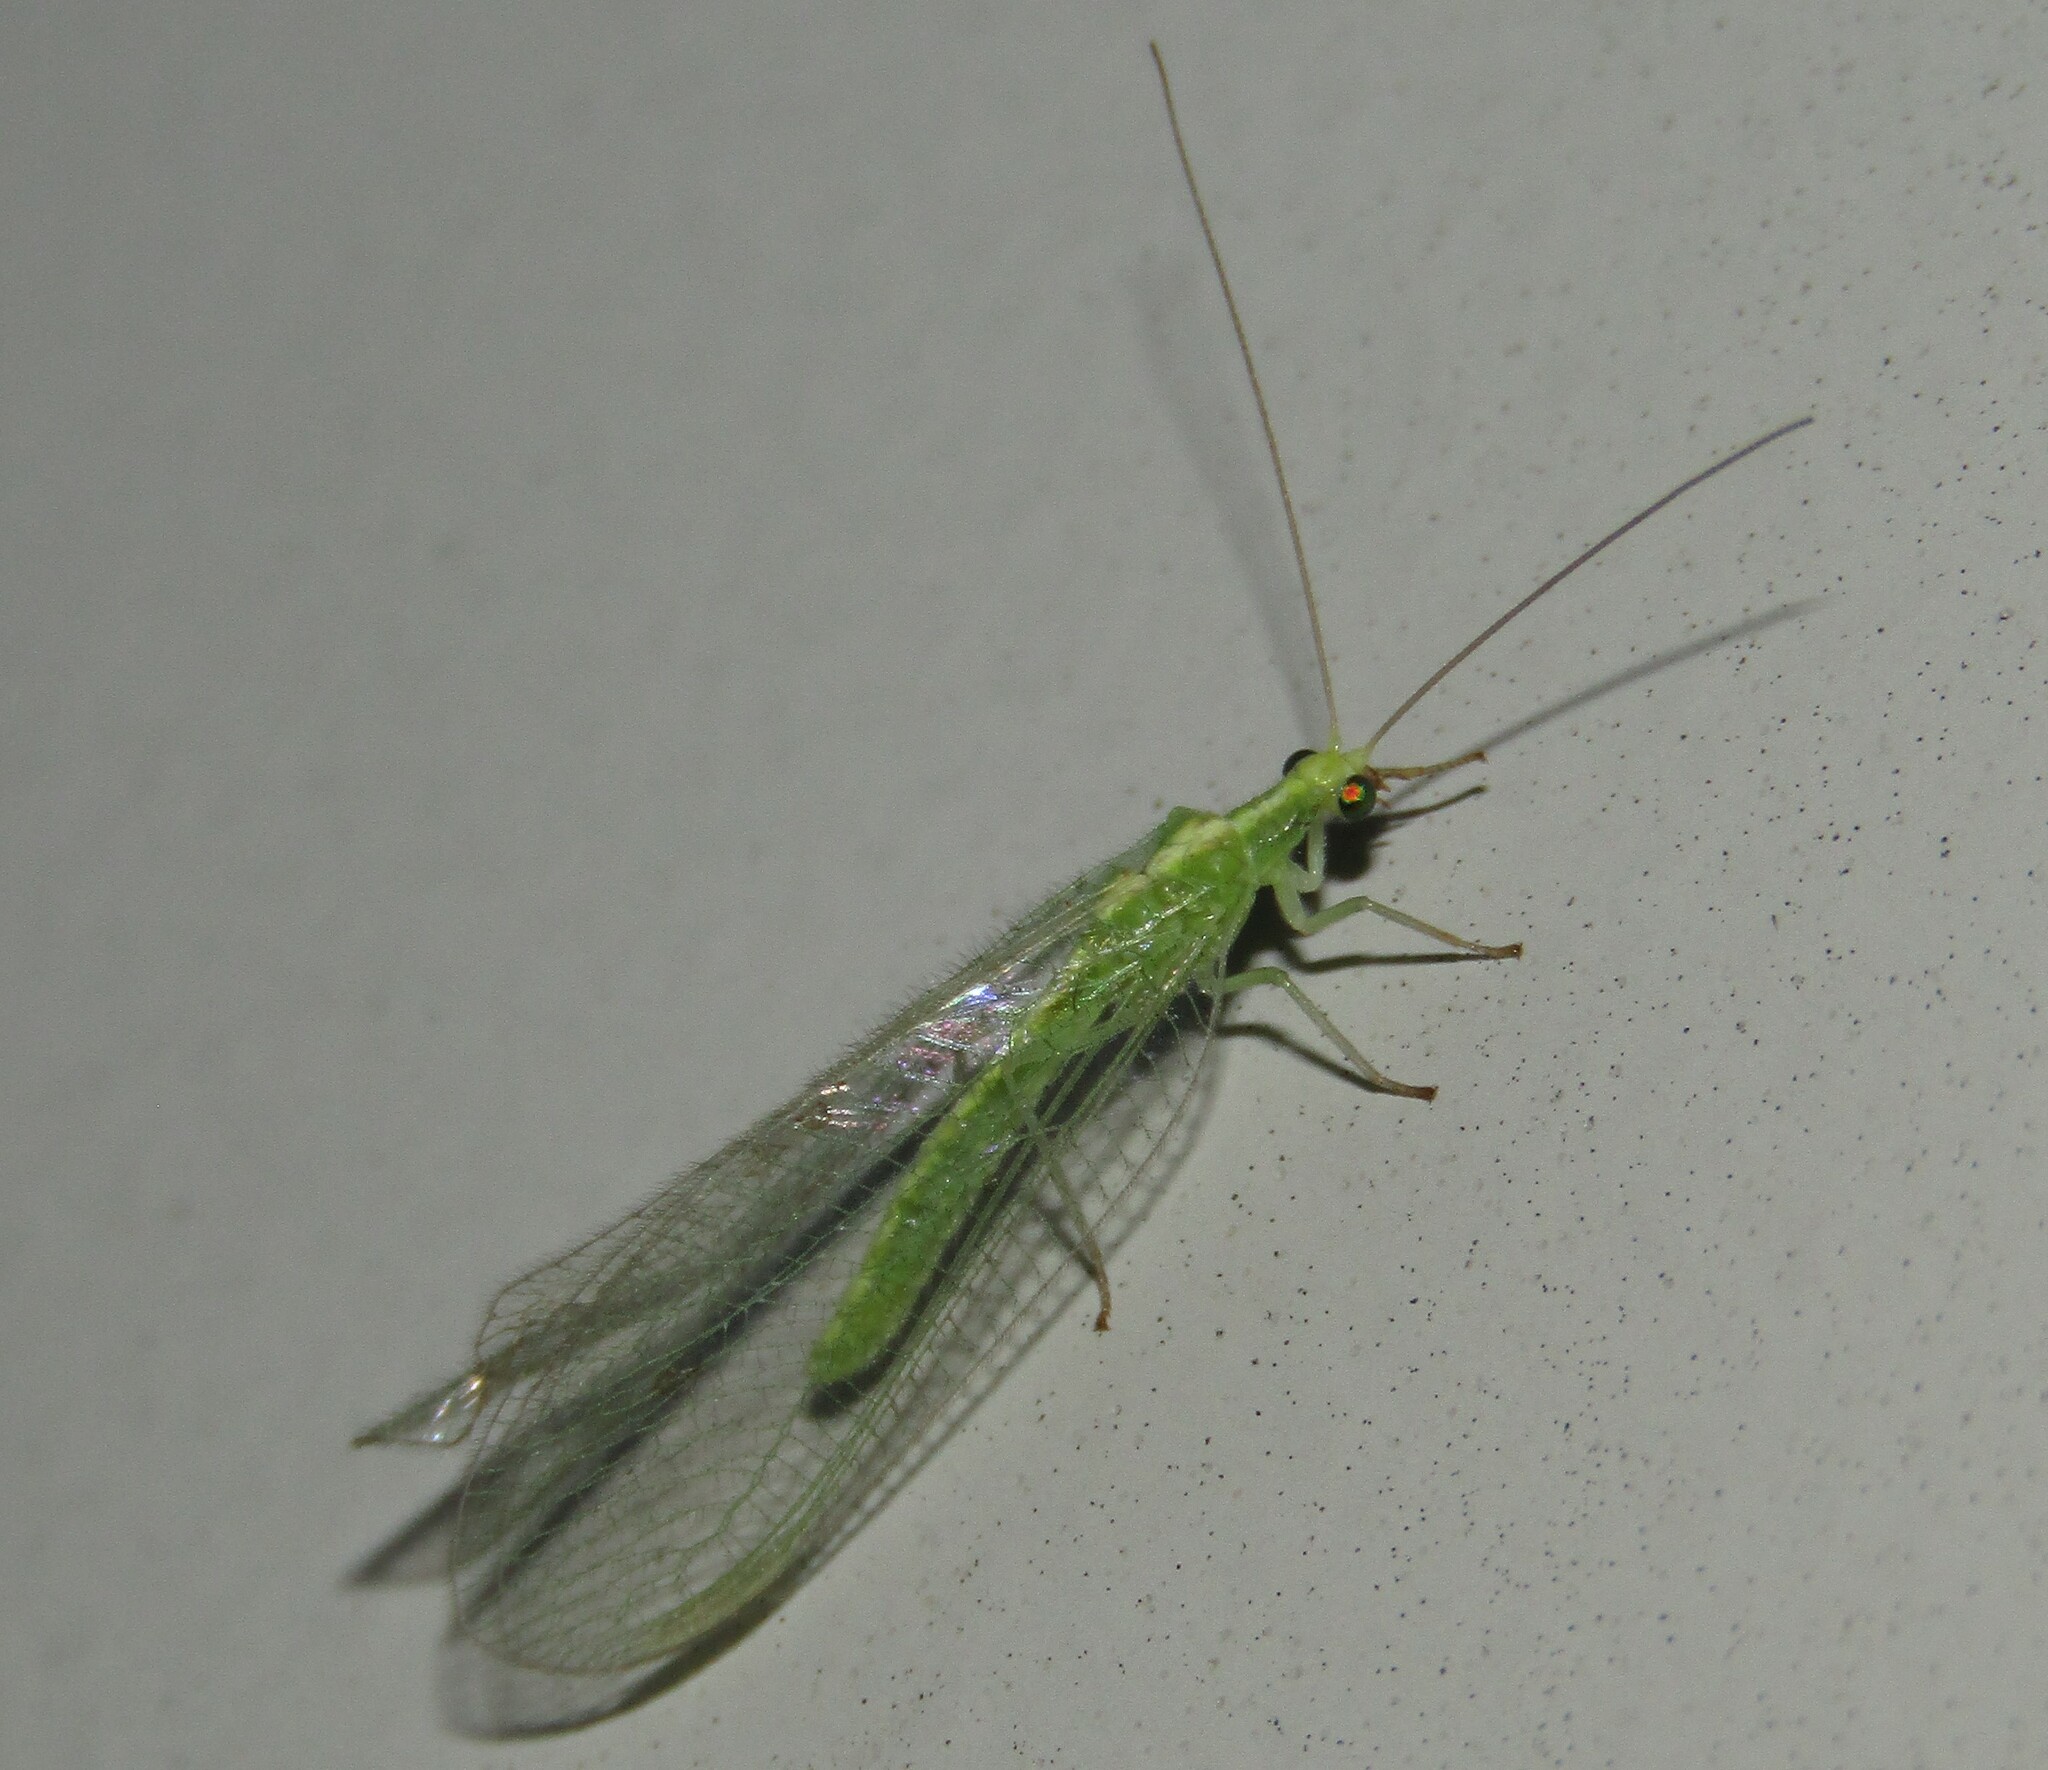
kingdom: Animalia
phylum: Arthropoda
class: Insecta
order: Neuroptera
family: Chrysopidae
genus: Chrysoperla
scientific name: Chrysoperla
